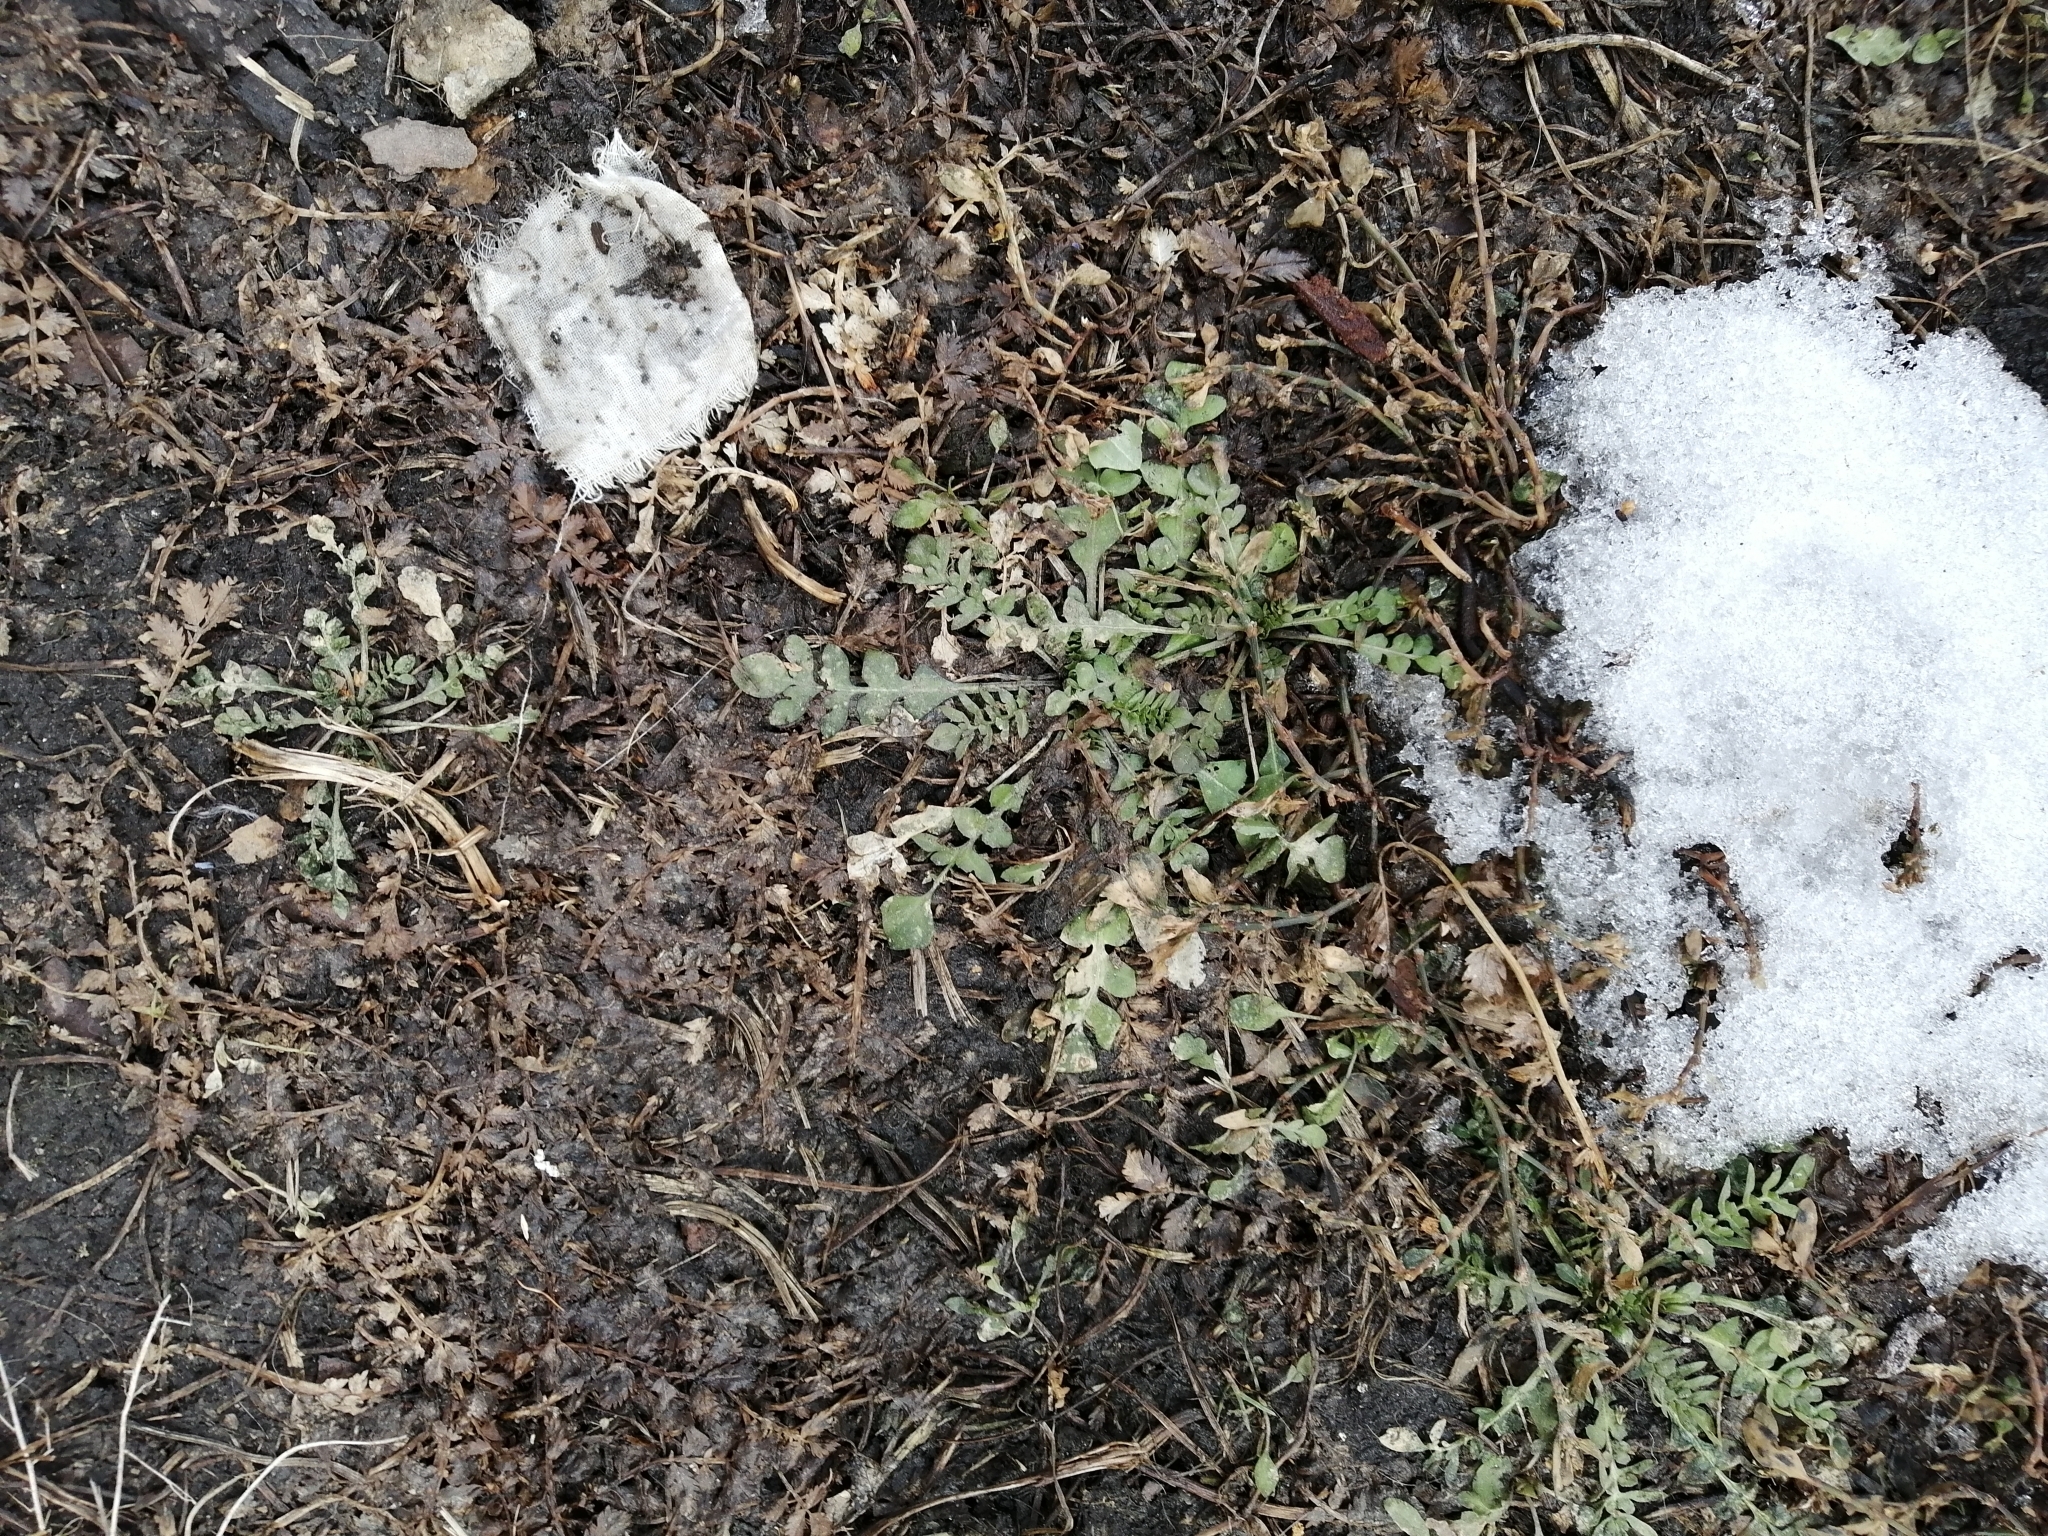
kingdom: Plantae
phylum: Tracheophyta
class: Magnoliopsida
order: Brassicales
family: Brassicaceae
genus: Capsella
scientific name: Capsella bursa-pastoris
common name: Shepherd's purse
